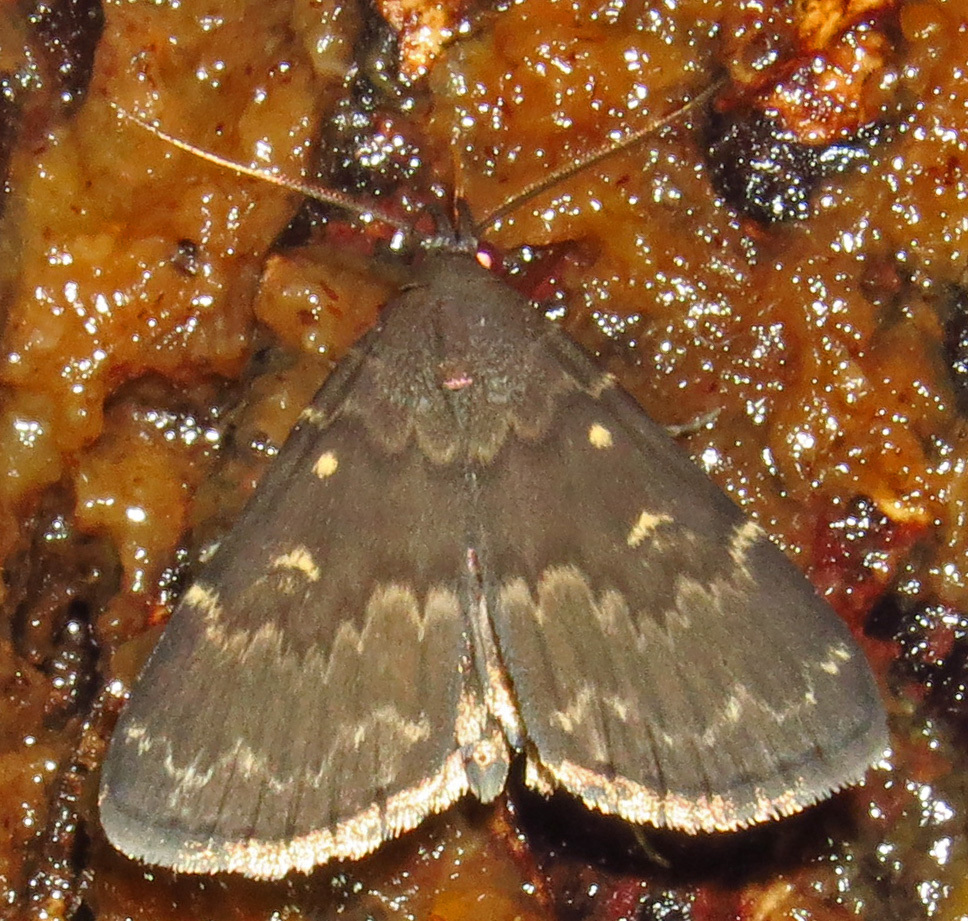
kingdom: Animalia
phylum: Arthropoda
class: Insecta
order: Lepidoptera
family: Erebidae
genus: Idia
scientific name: Idia lubricalis
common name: Twin-striped tabby
